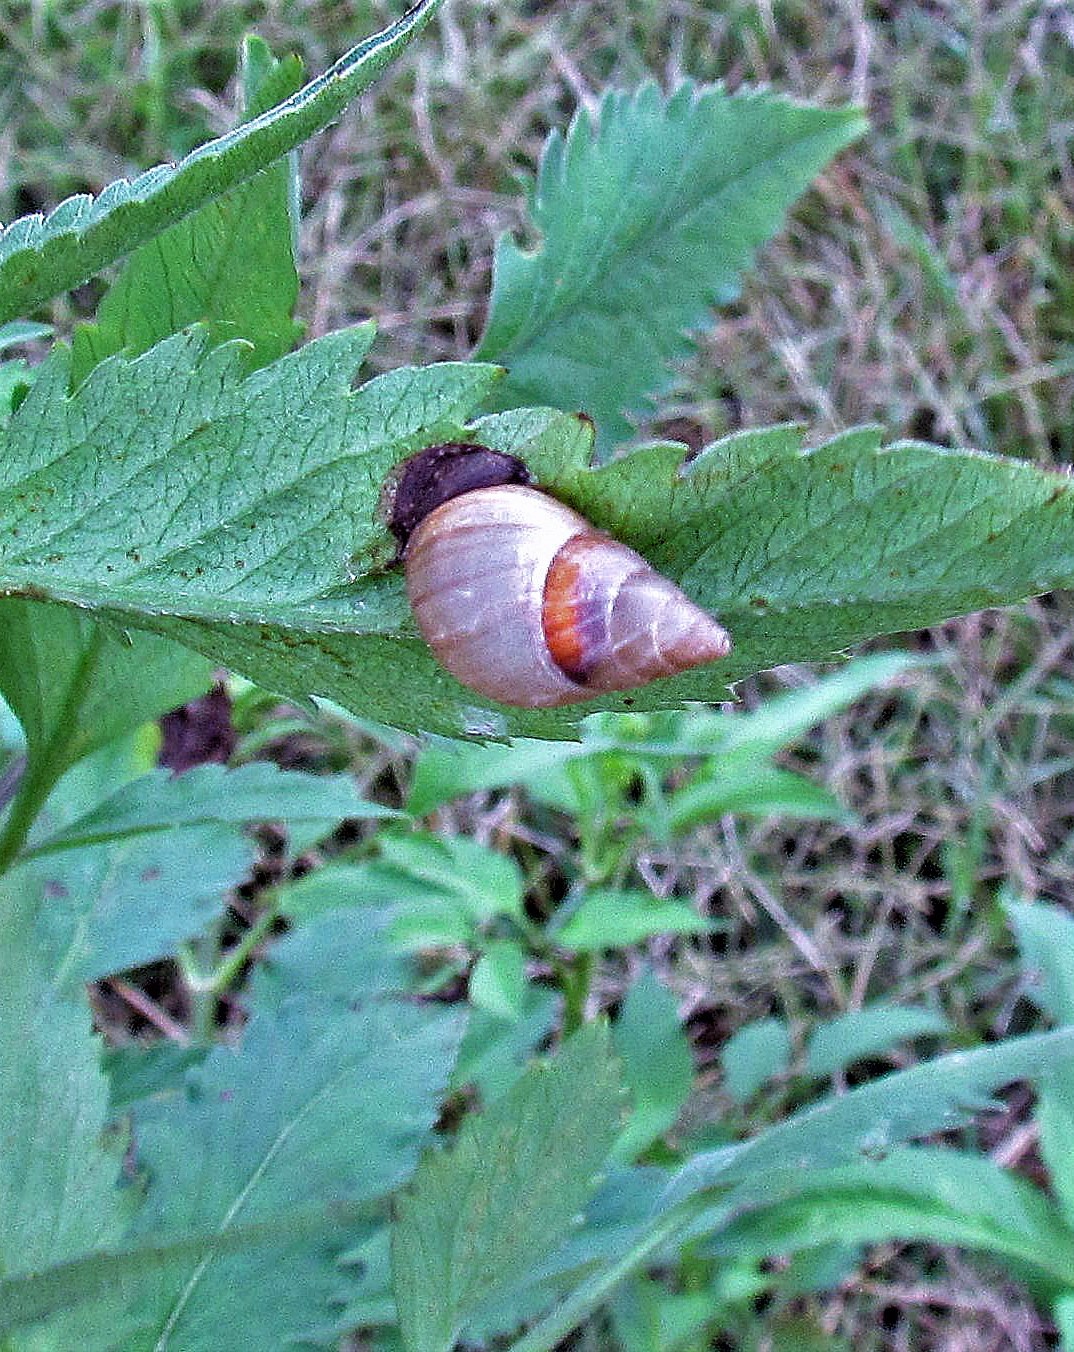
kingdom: Animalia
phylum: Mollusca
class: Gastropoda
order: Stylommatophora
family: Bulimulidae
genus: Bulimulus
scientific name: Bulimulus bonariensis
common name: Snail
